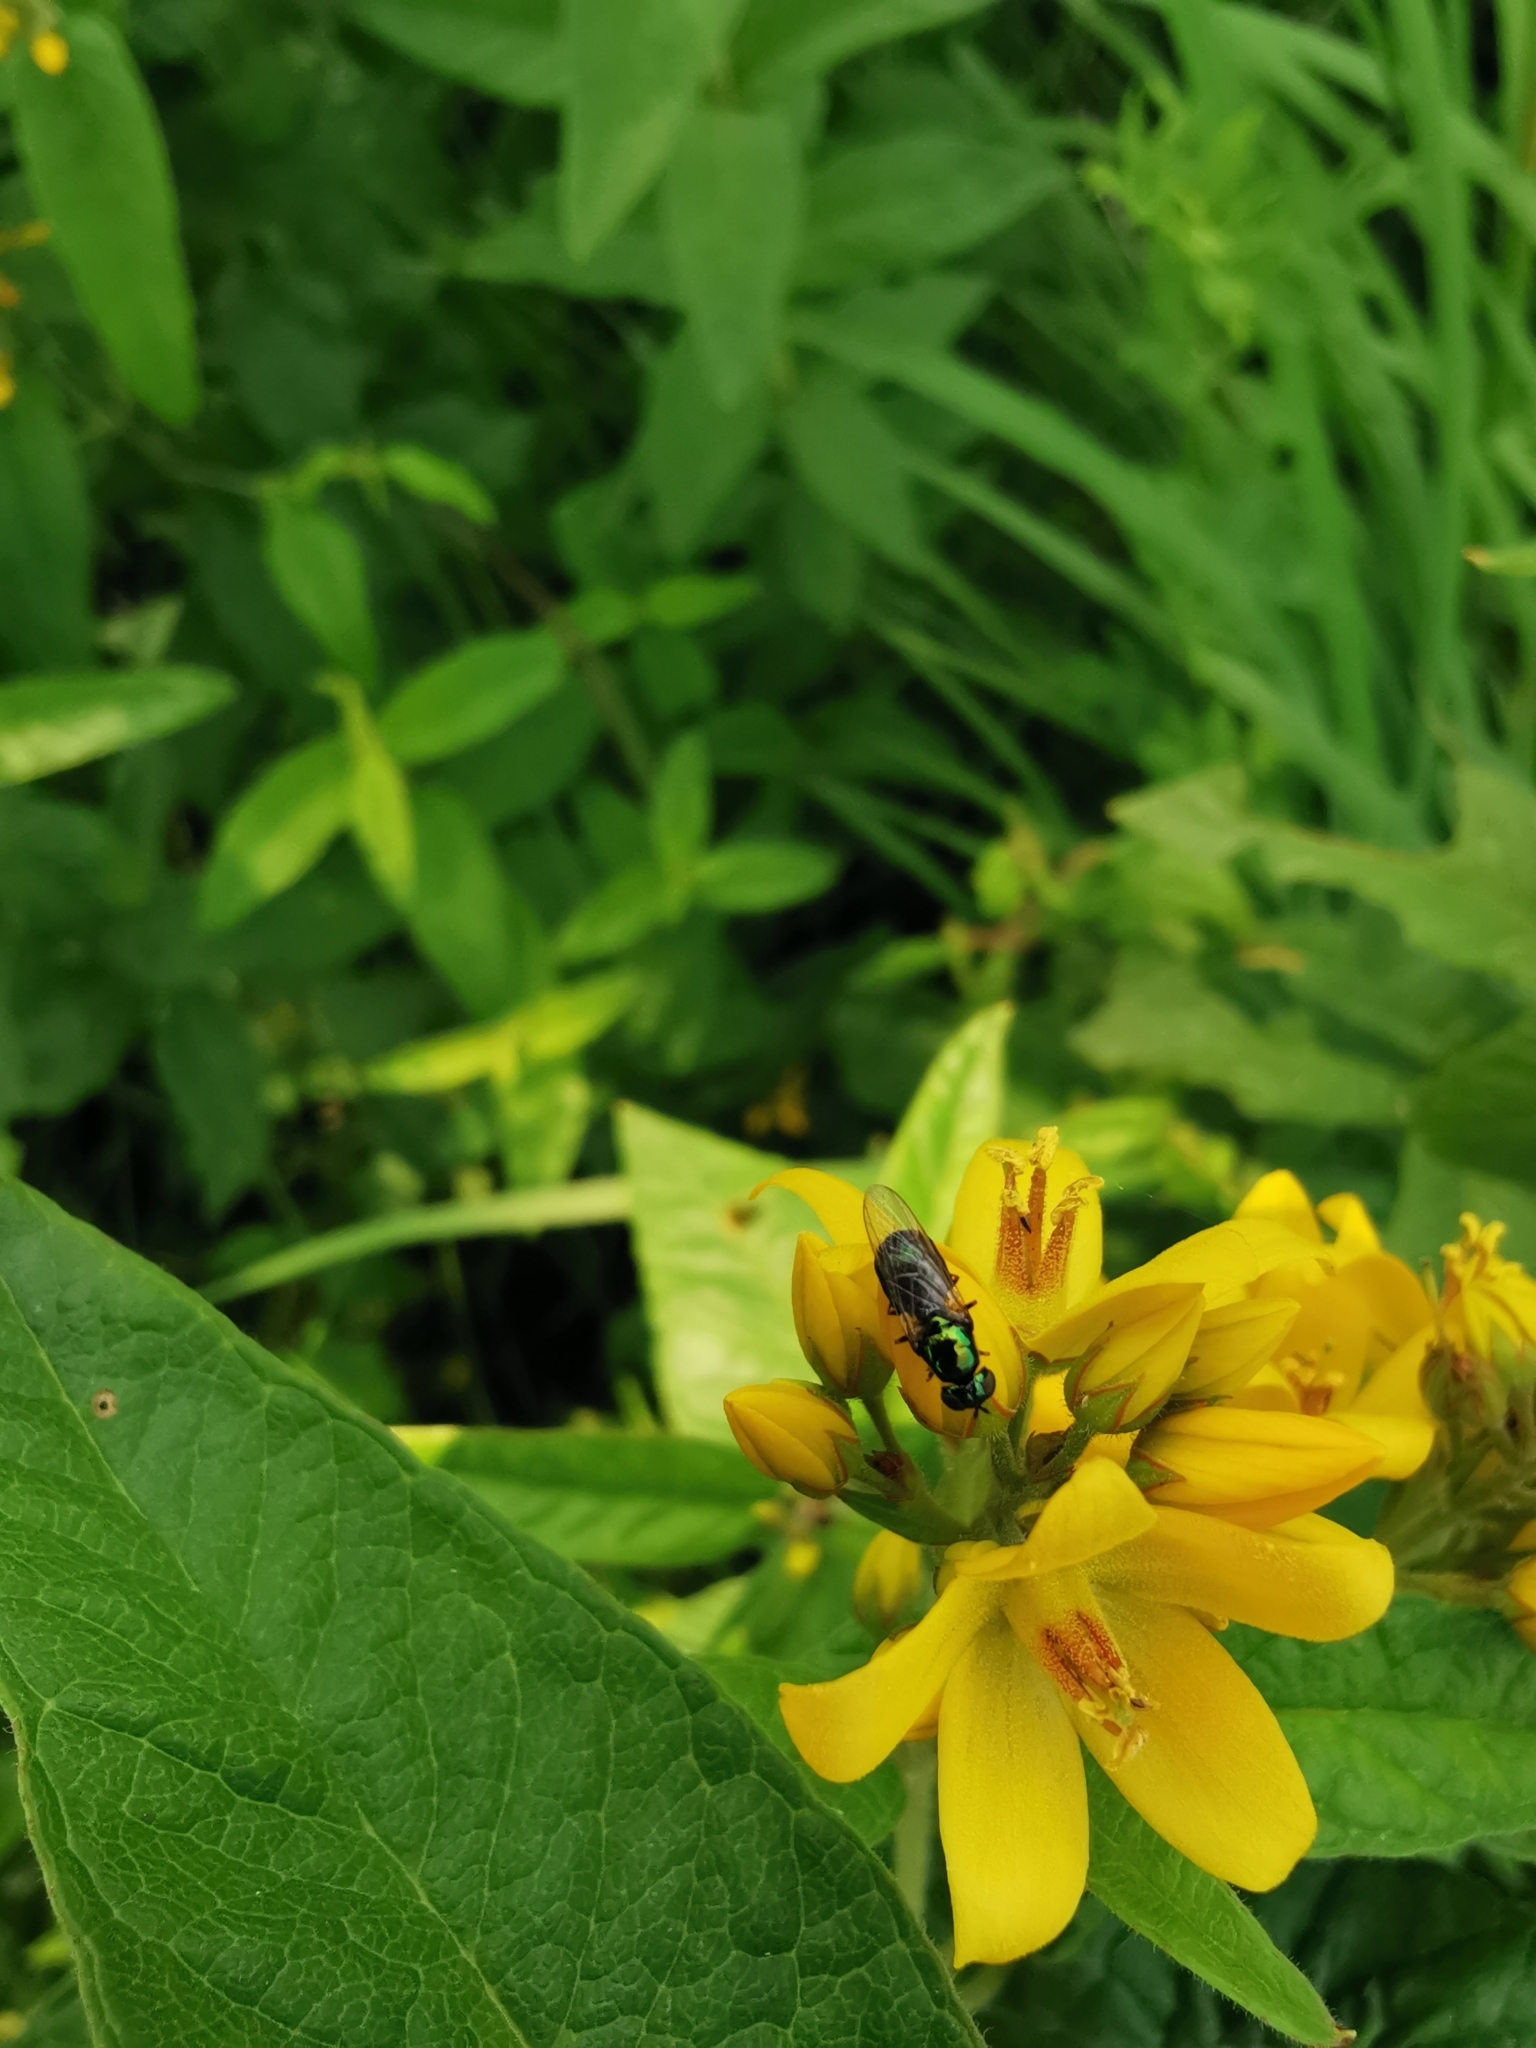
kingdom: Animalia
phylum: Arthropoda
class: Insecta
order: Diptera
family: Stratiomyidae
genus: Microchrysa
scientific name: Microchrysa polita
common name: Black-horned gem
